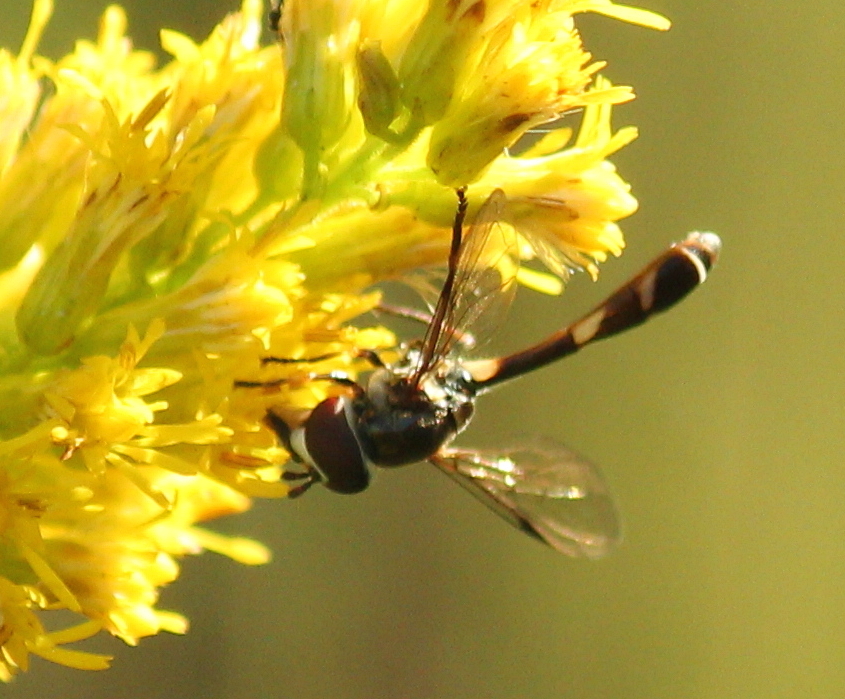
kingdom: Animalia
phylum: Arthropoda
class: Insecta
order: Diptera
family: Syrphidae
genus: Dioprosopa
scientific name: Dioprosopa clavatus
